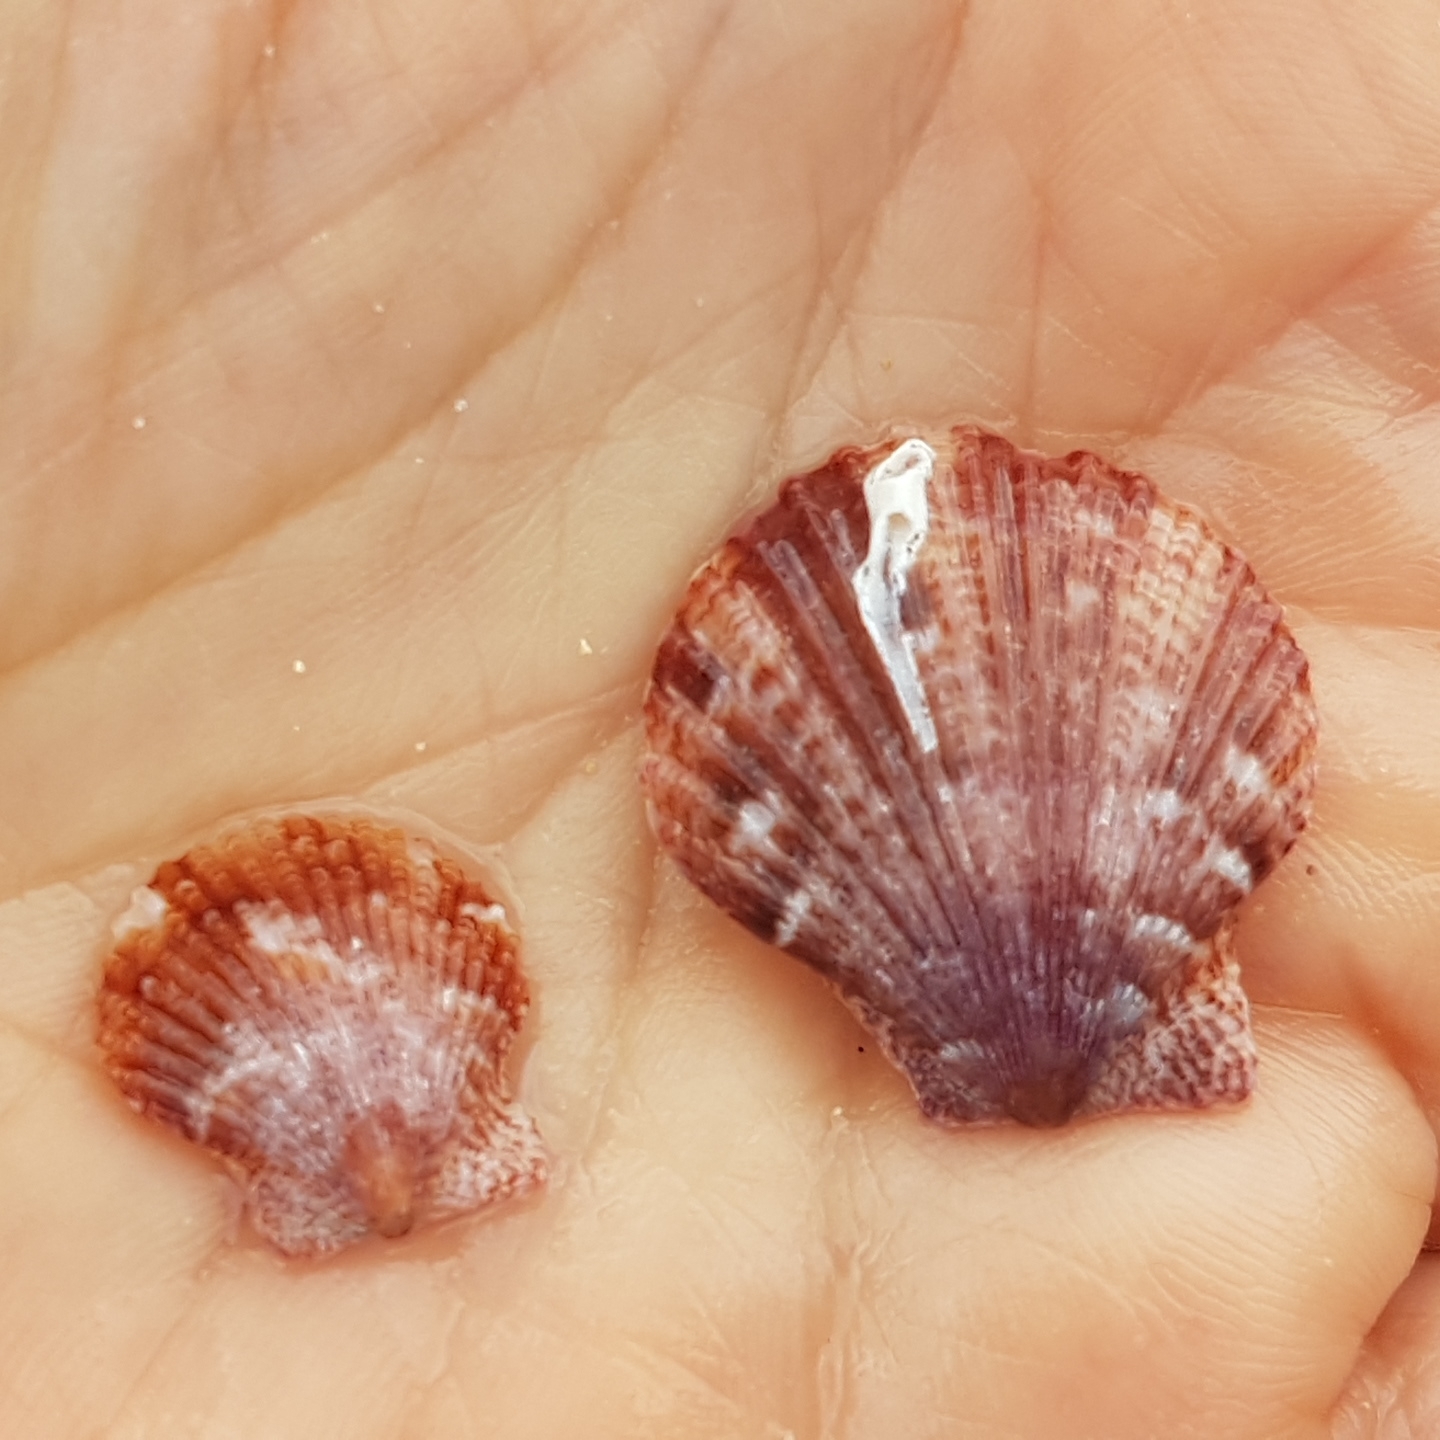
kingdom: Animalia
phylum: Mollusca
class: Bivalvia
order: Pectinida
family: Pectinidae
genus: Aequipecten
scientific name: Aequipecten opercularis
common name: Queen scallop
